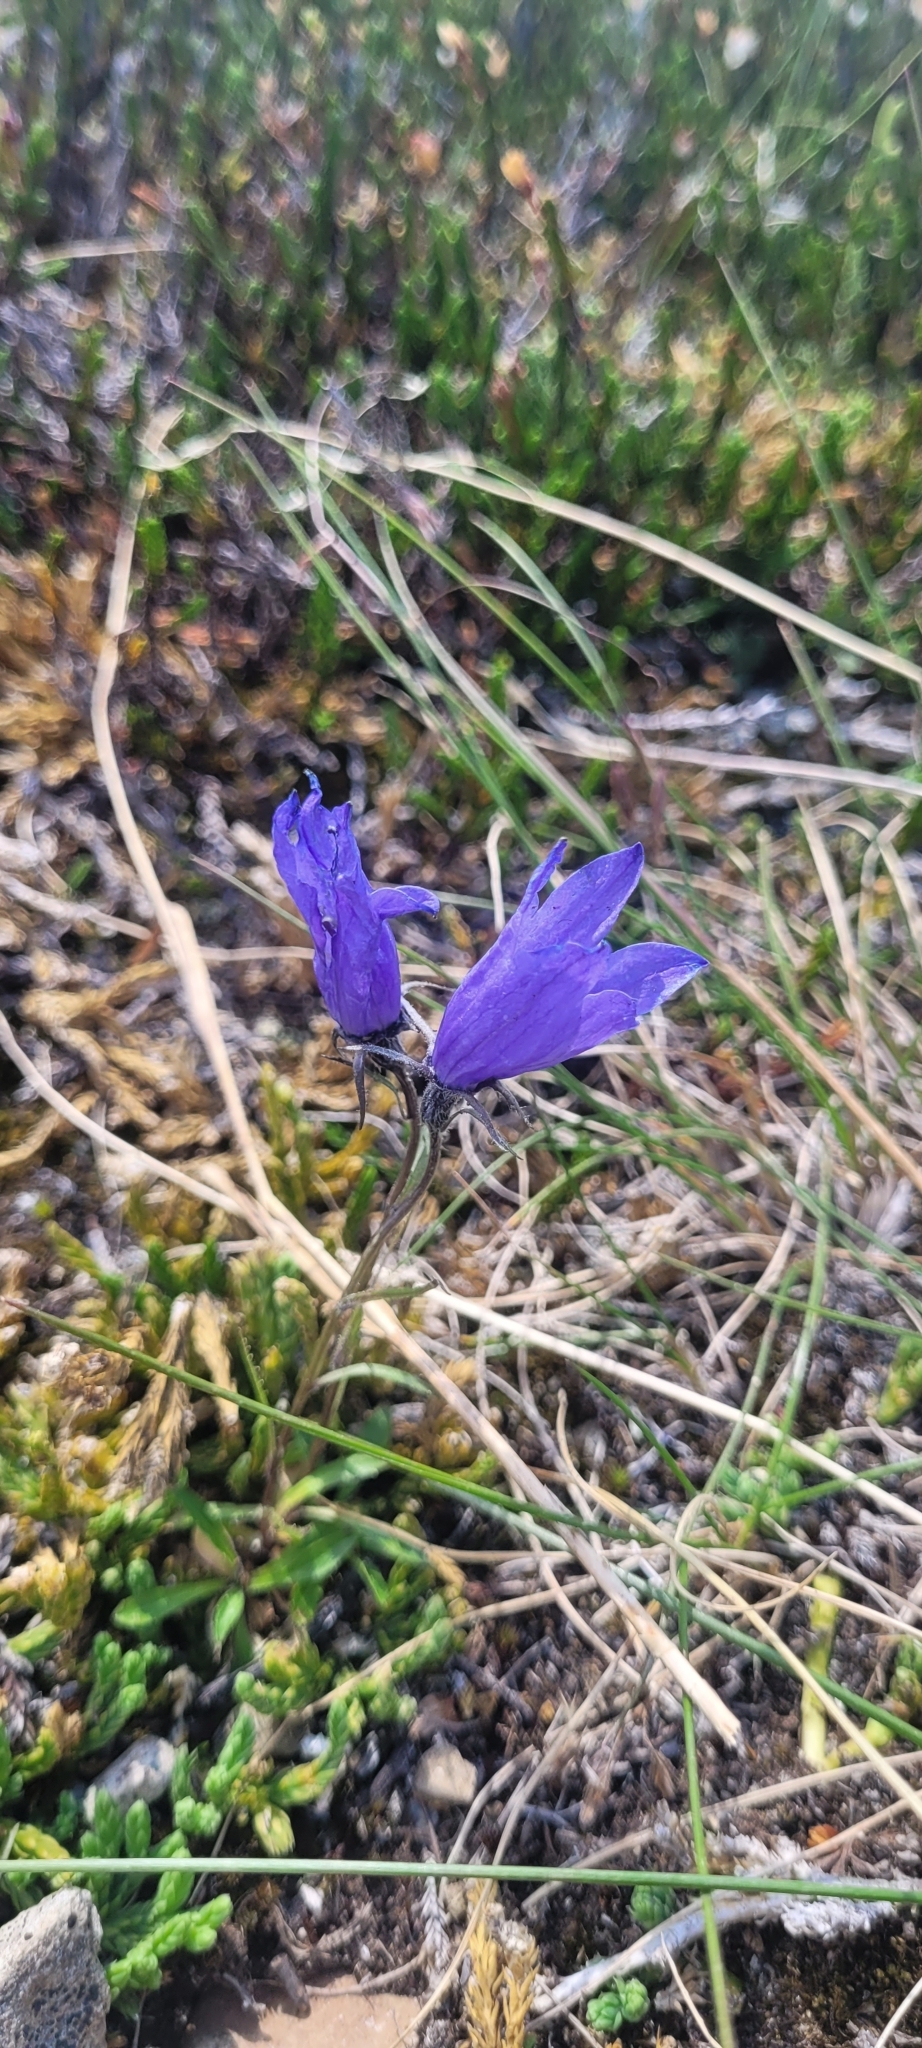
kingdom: Plantae
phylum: Tracheophyta
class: Magnoliopsida
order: Asterales
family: Campanulaceae
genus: Campanula
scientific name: Campanula lasiocarpa
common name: Mountain harebell
